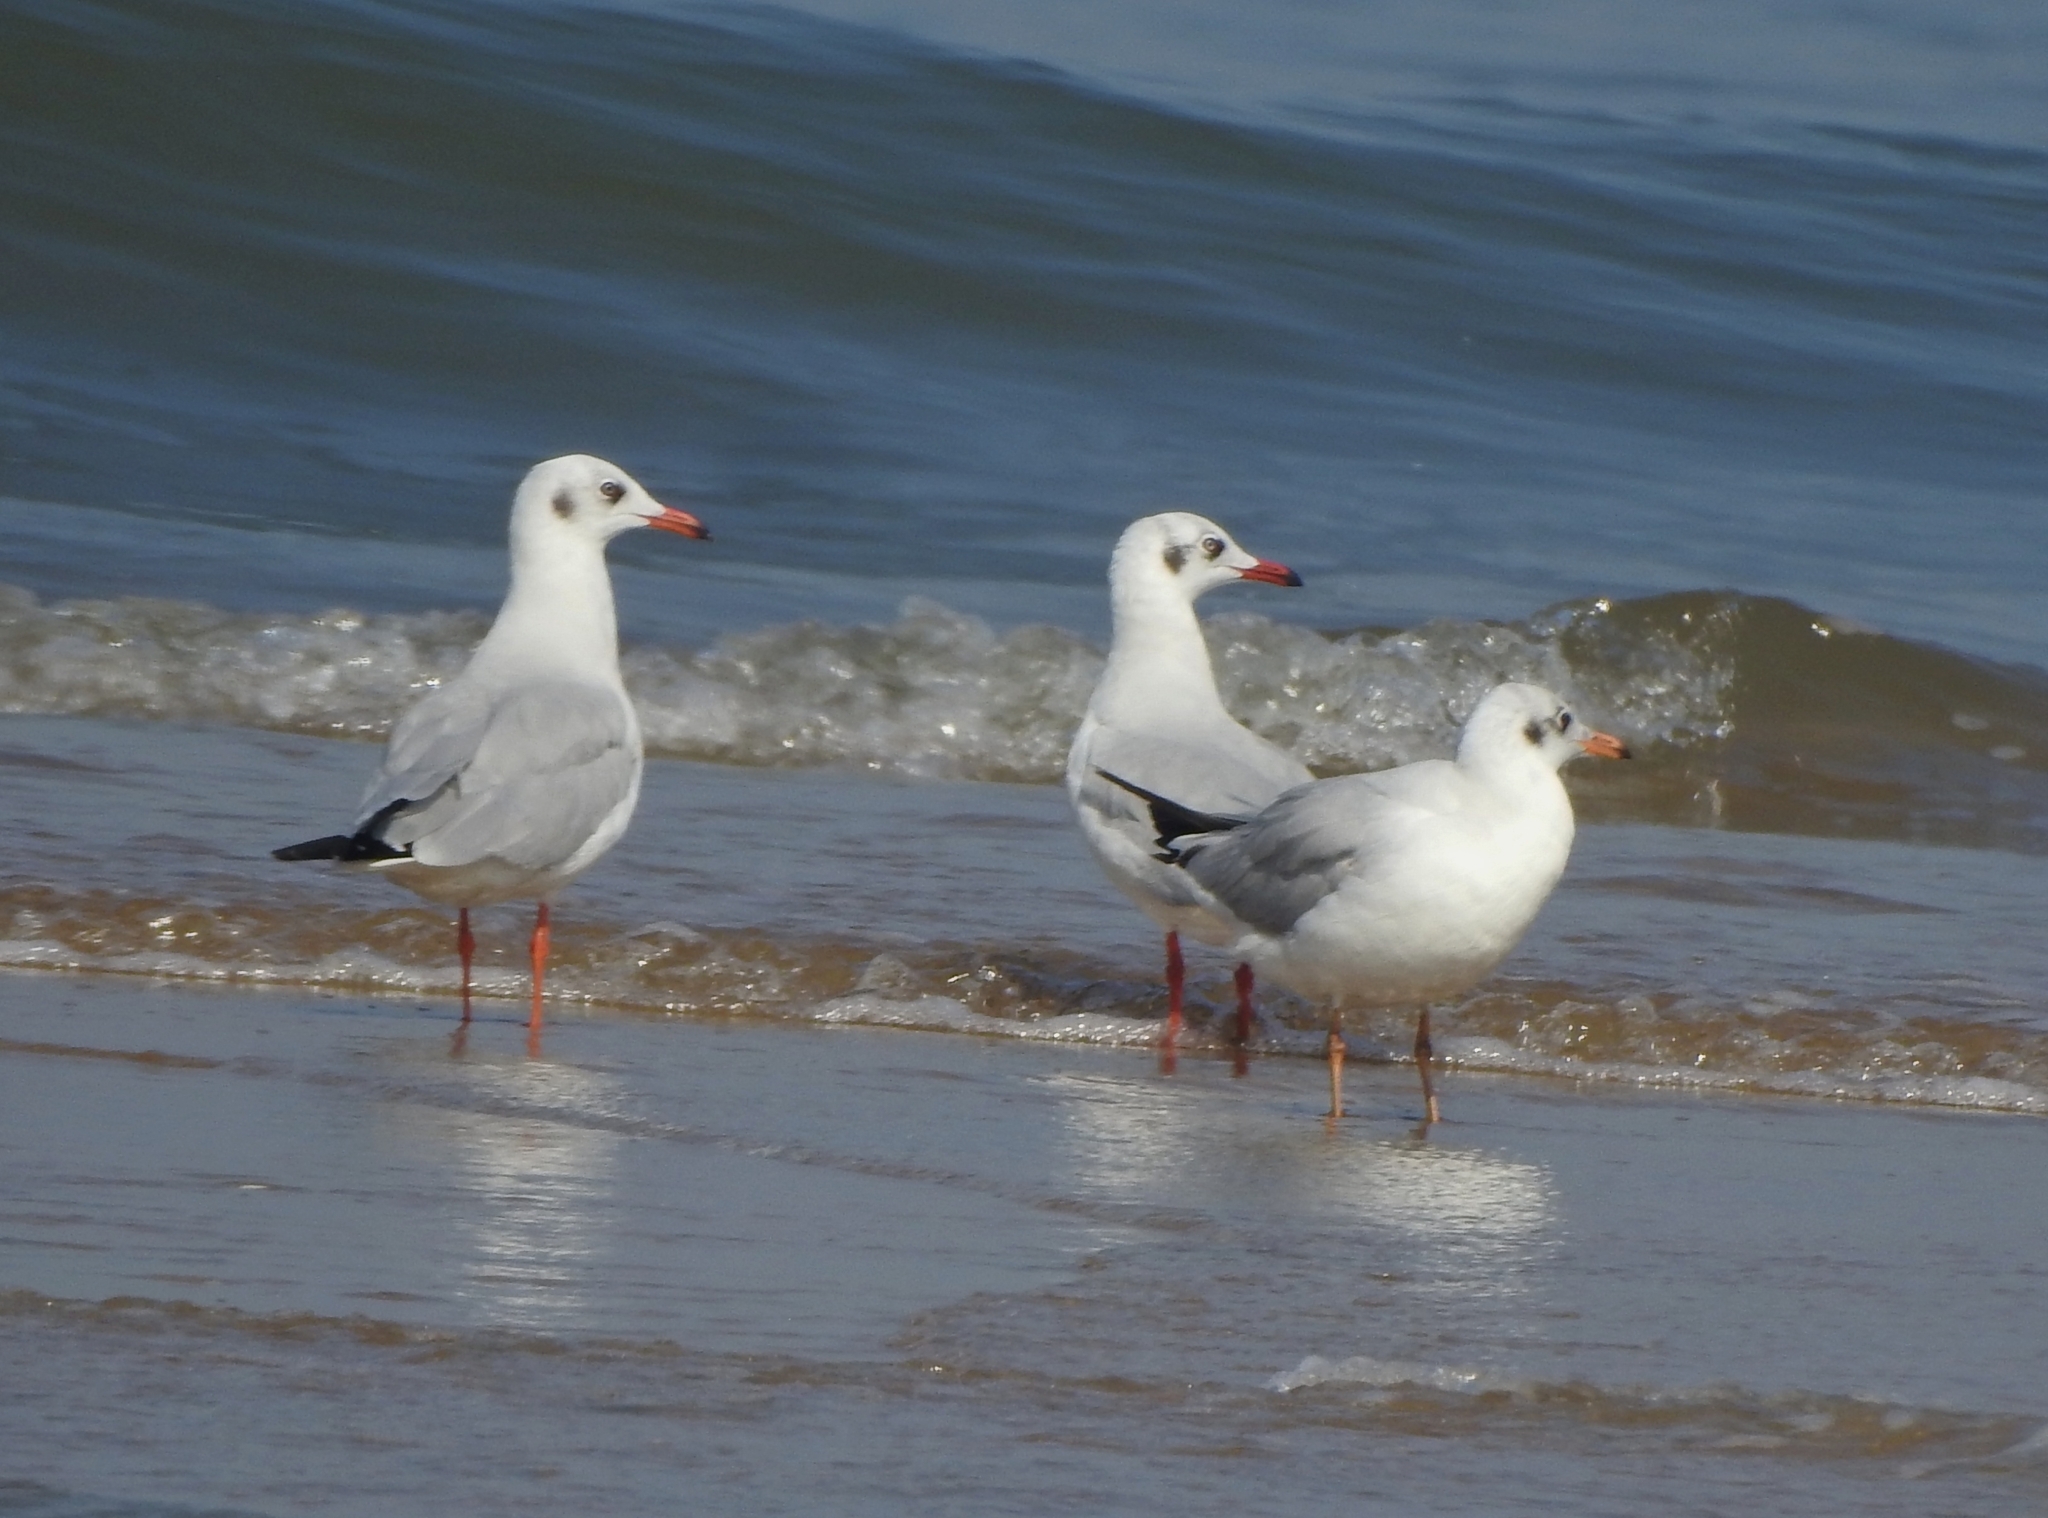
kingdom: Animalia
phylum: Chordata
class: Aves
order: Charadriiformes
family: Laridae
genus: Chroicocephalus
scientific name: Chroicocephalus brunnicephalus
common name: Brown-headed gull
